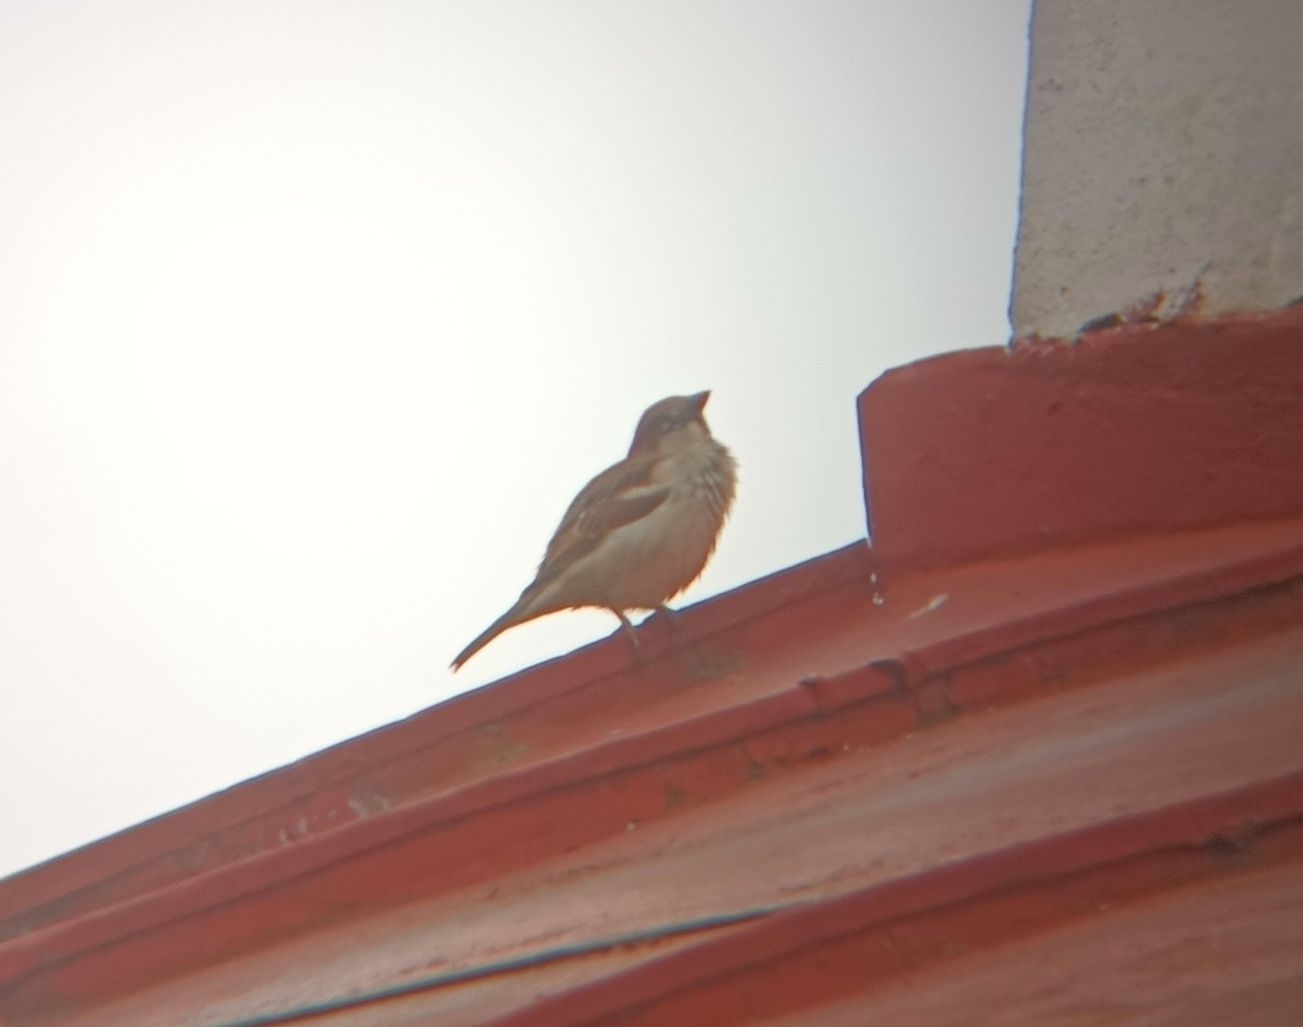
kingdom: Animalia
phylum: Chordata
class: Aves
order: Passeriformes
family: Passeridae
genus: Passer
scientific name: Passer domesticus
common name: House sparrow
